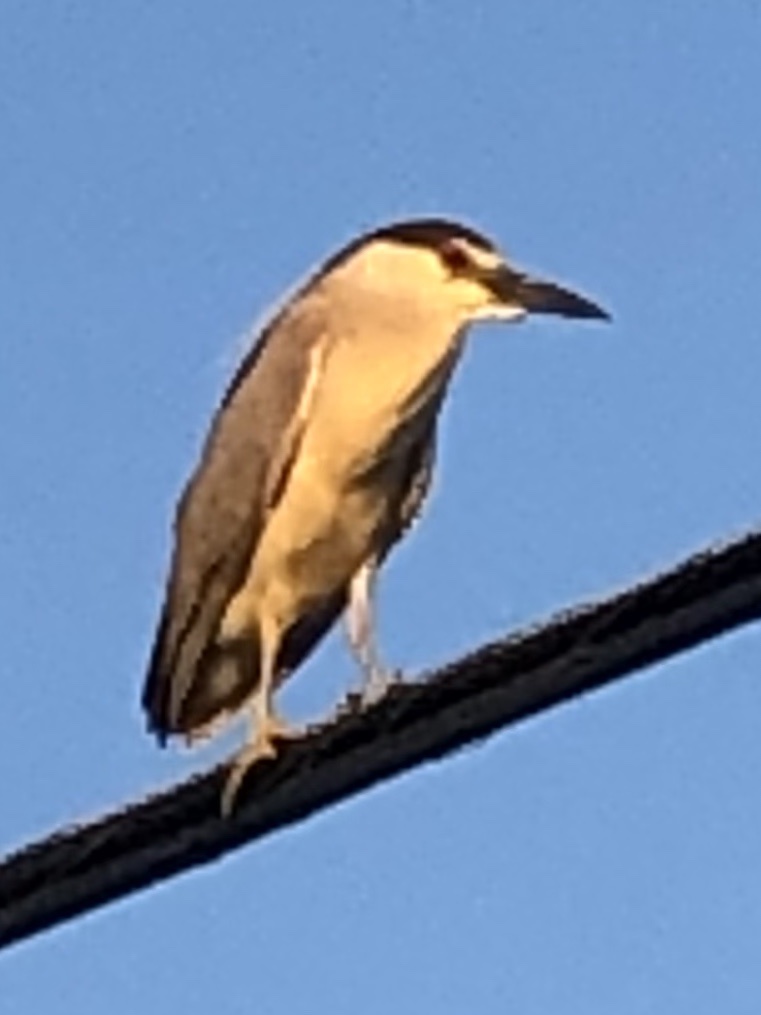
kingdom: Animalia
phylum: Chordata
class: Aves
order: Pelecaniformes
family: Ardeidae
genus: Nycticorax
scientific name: Nycticorax nycticorax
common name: Black-crowned night heron
